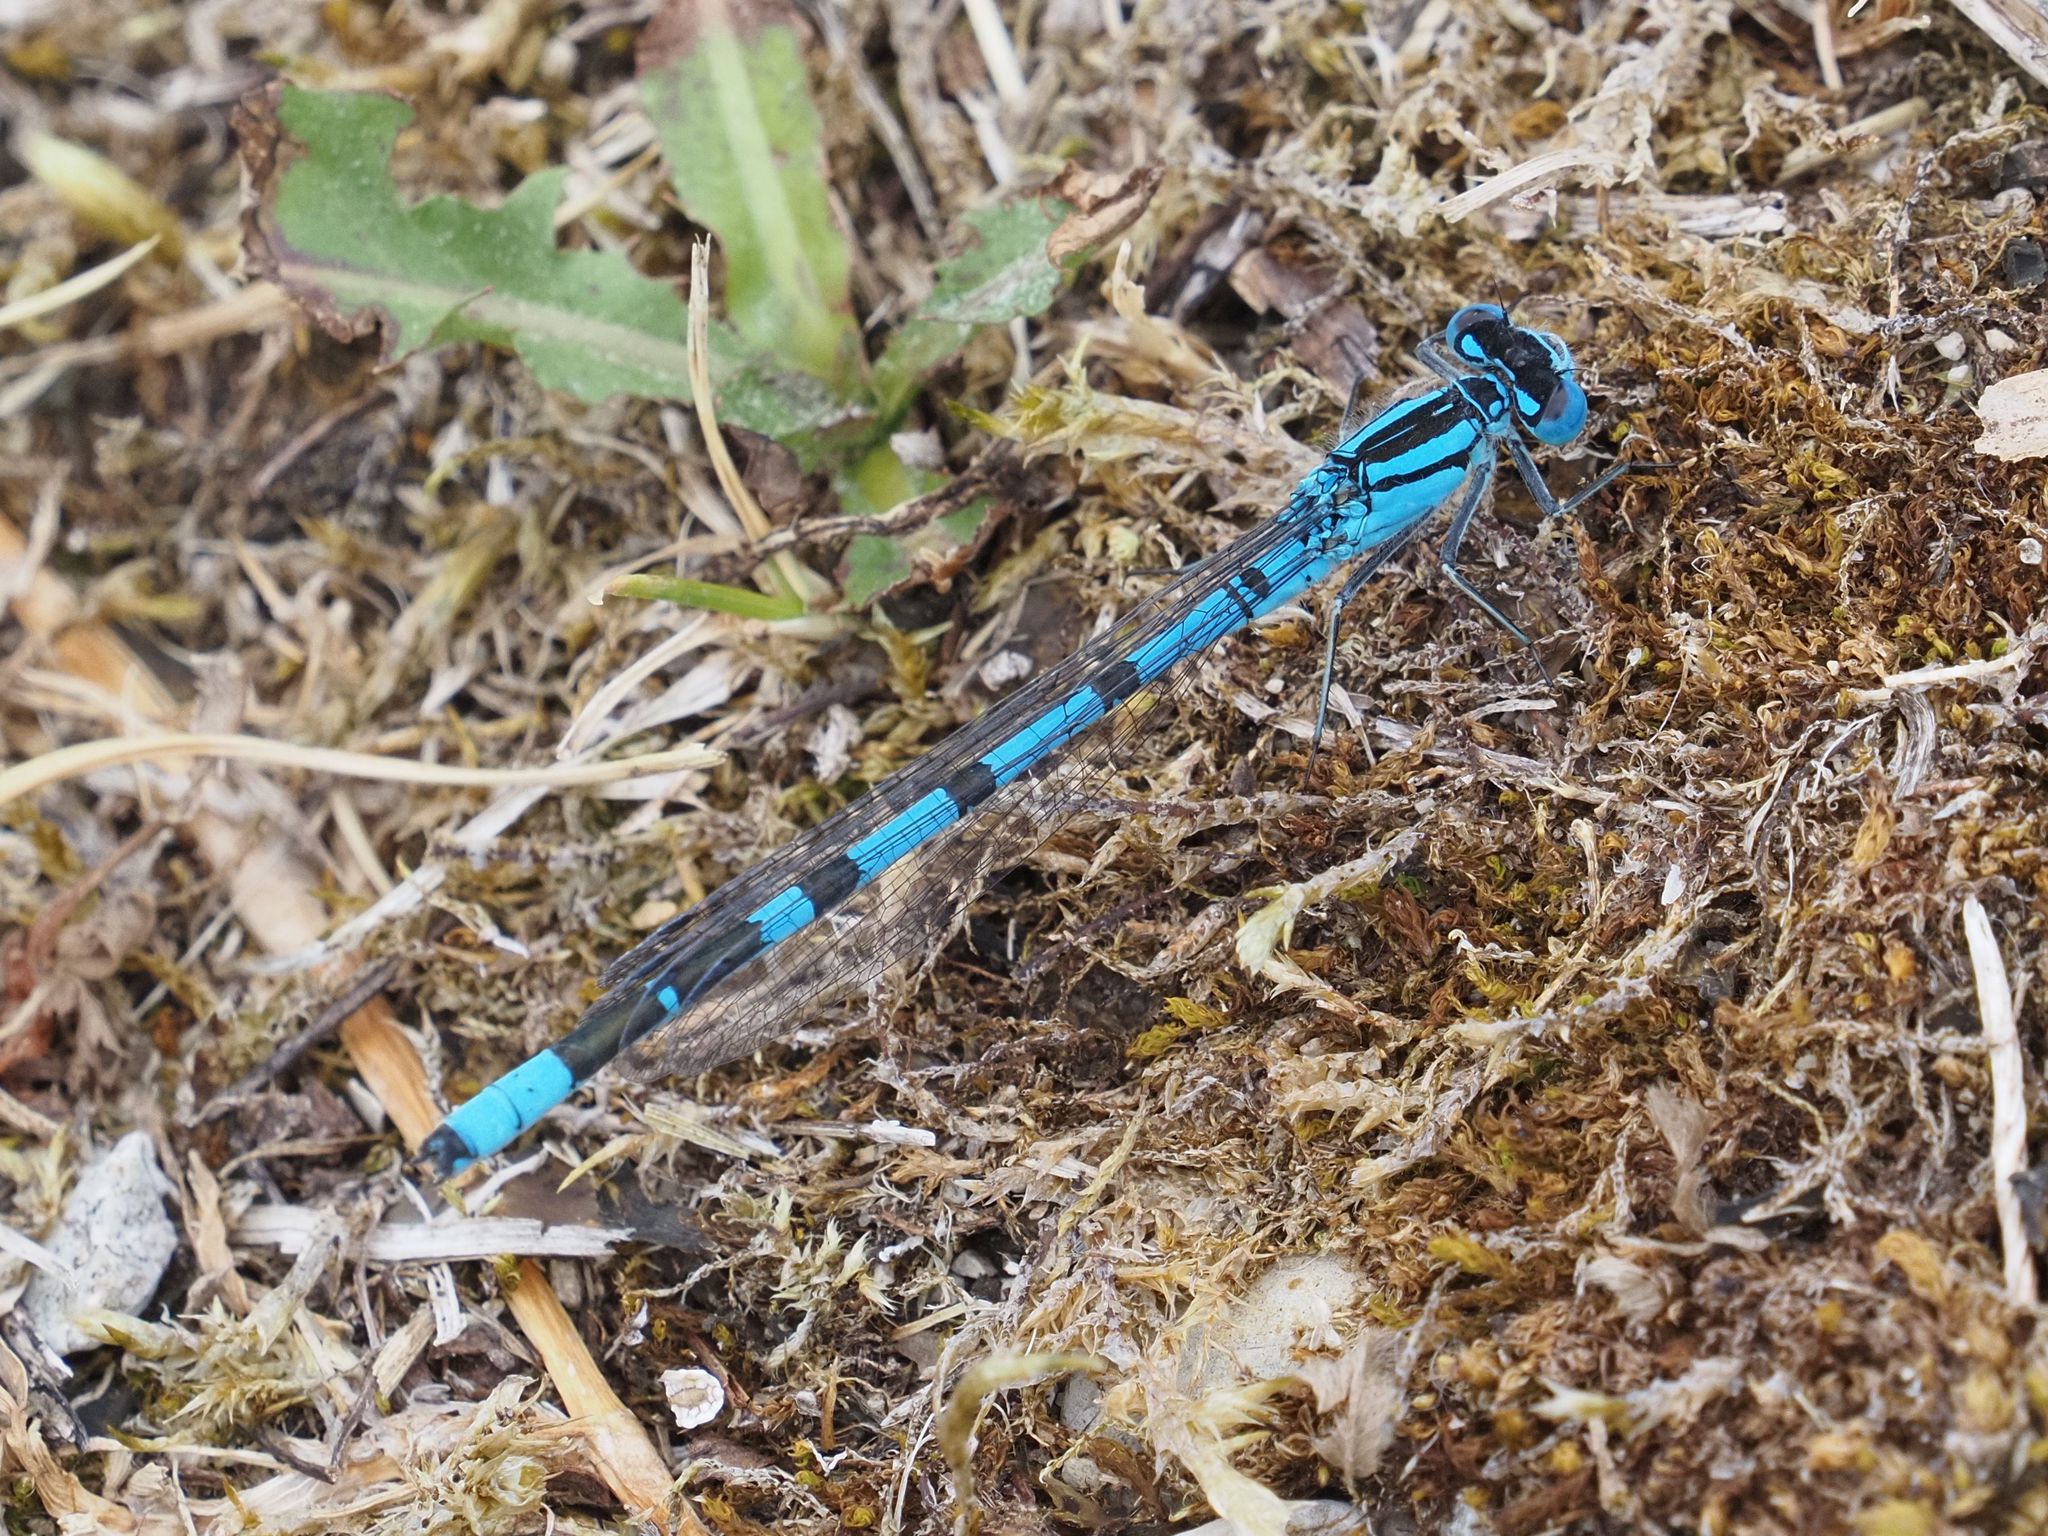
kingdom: Animalia
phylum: Arthropoda
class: Insecta
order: Odonata
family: Coenagrionidae
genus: Enallagma
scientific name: Enallagma cyathigerum
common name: Common blue damselfly
